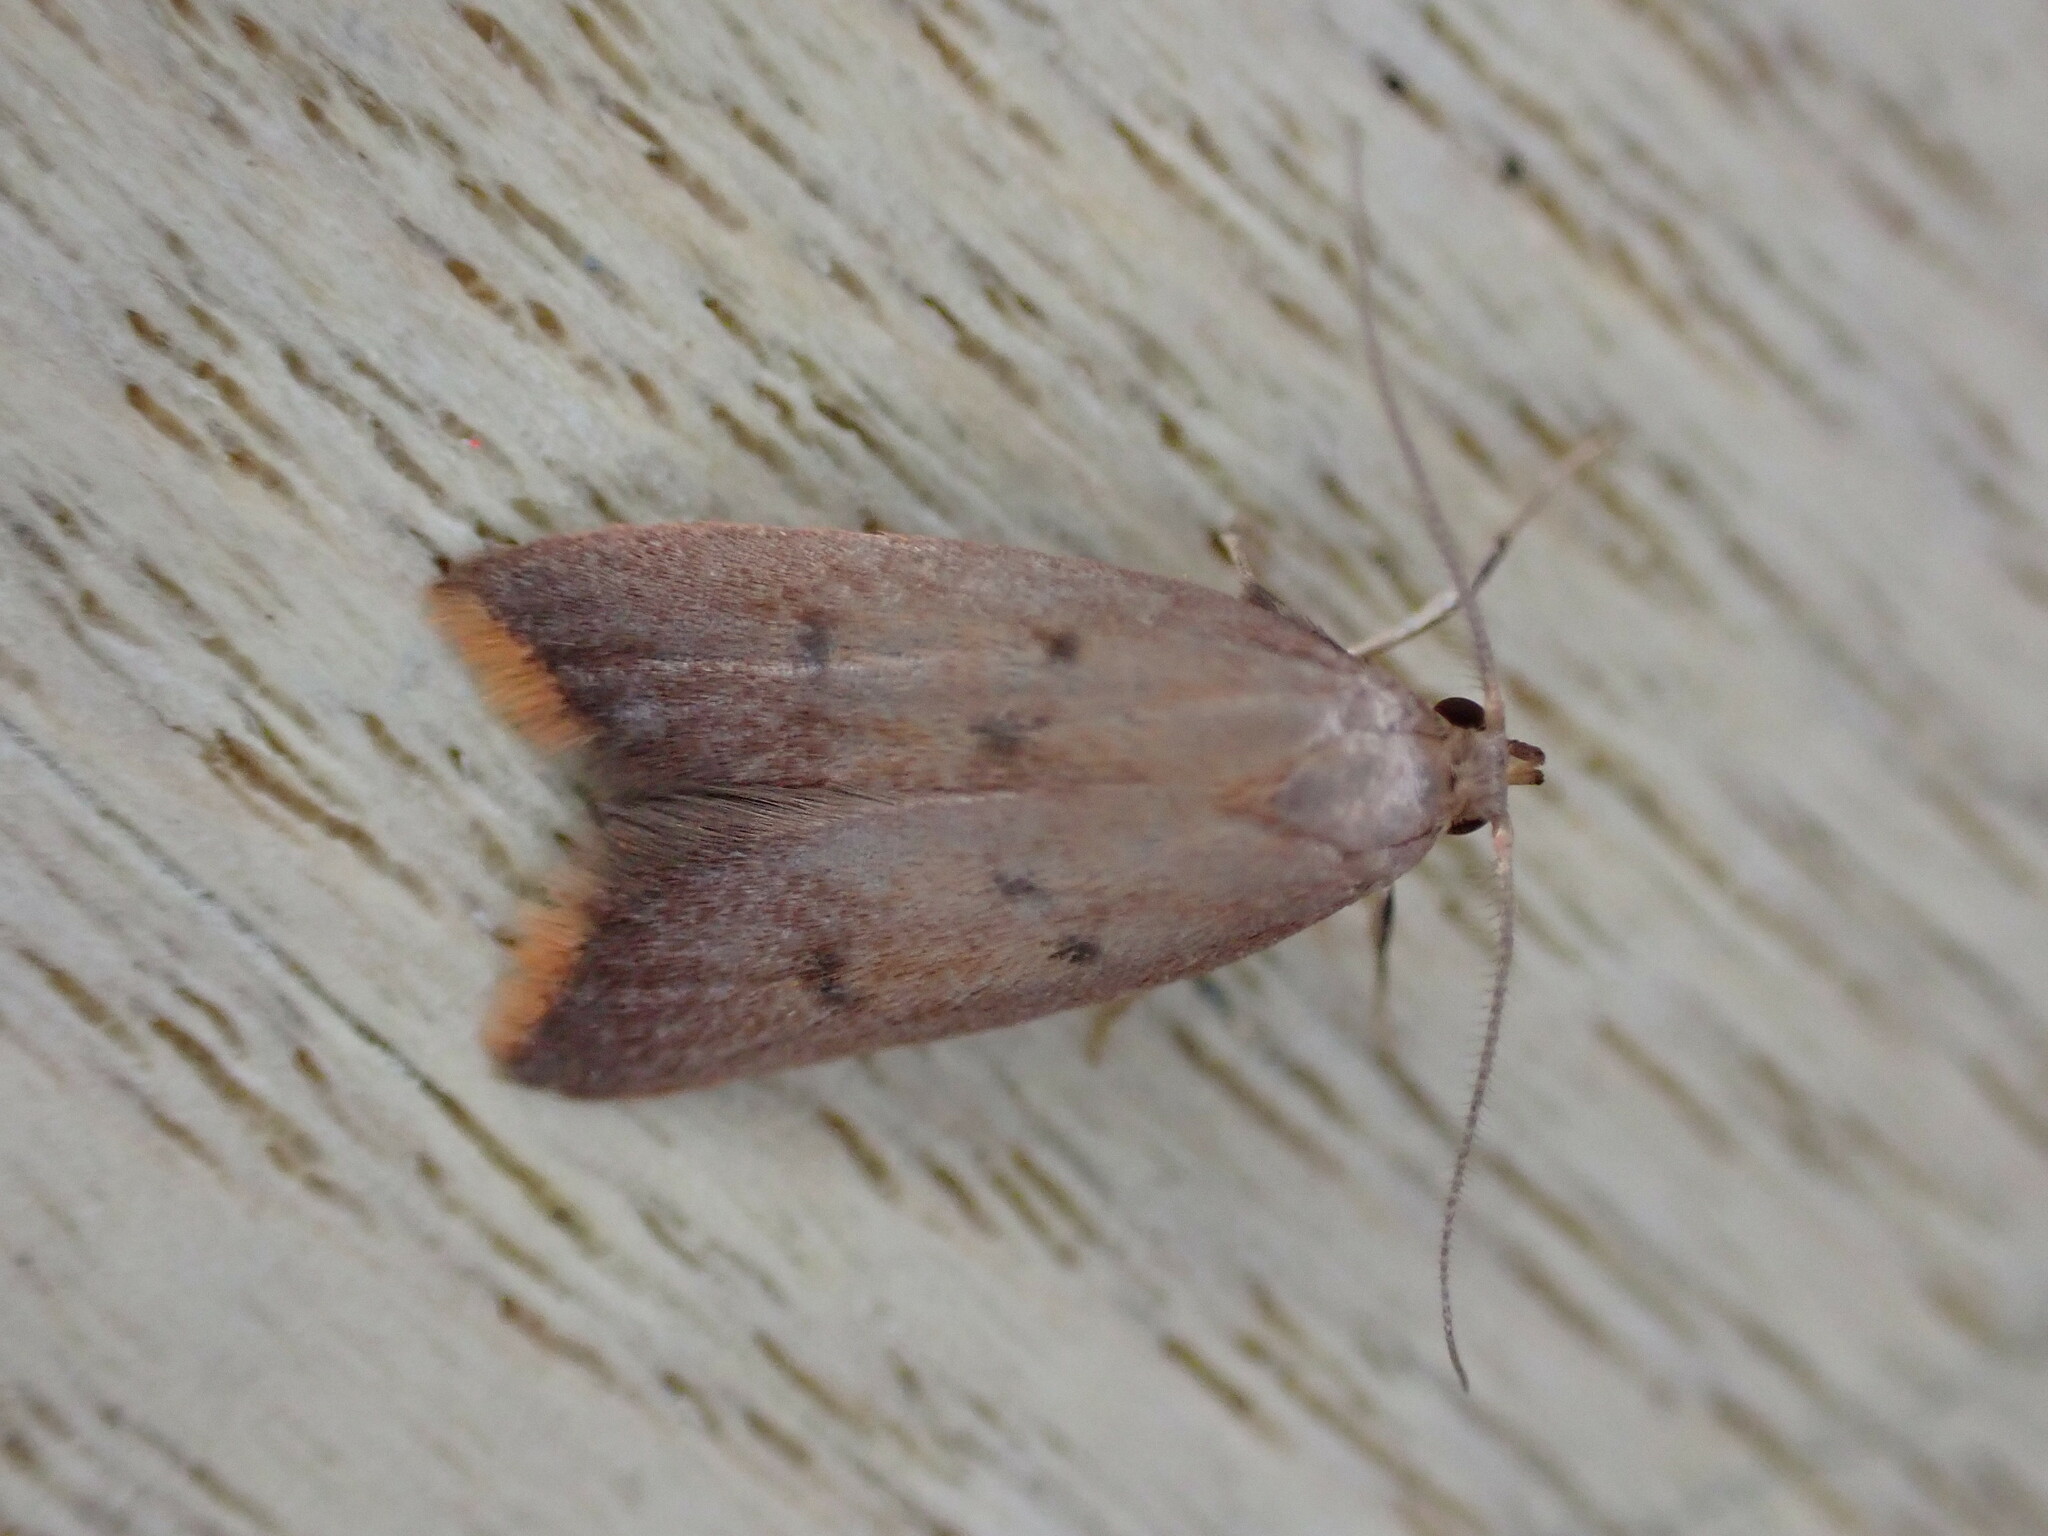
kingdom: Animalia
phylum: Arthropoda
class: Insecta
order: Lepidoptera
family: Oecophoridae
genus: Tachystola
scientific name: Tachystola acroxantha
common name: Ruddy streak
